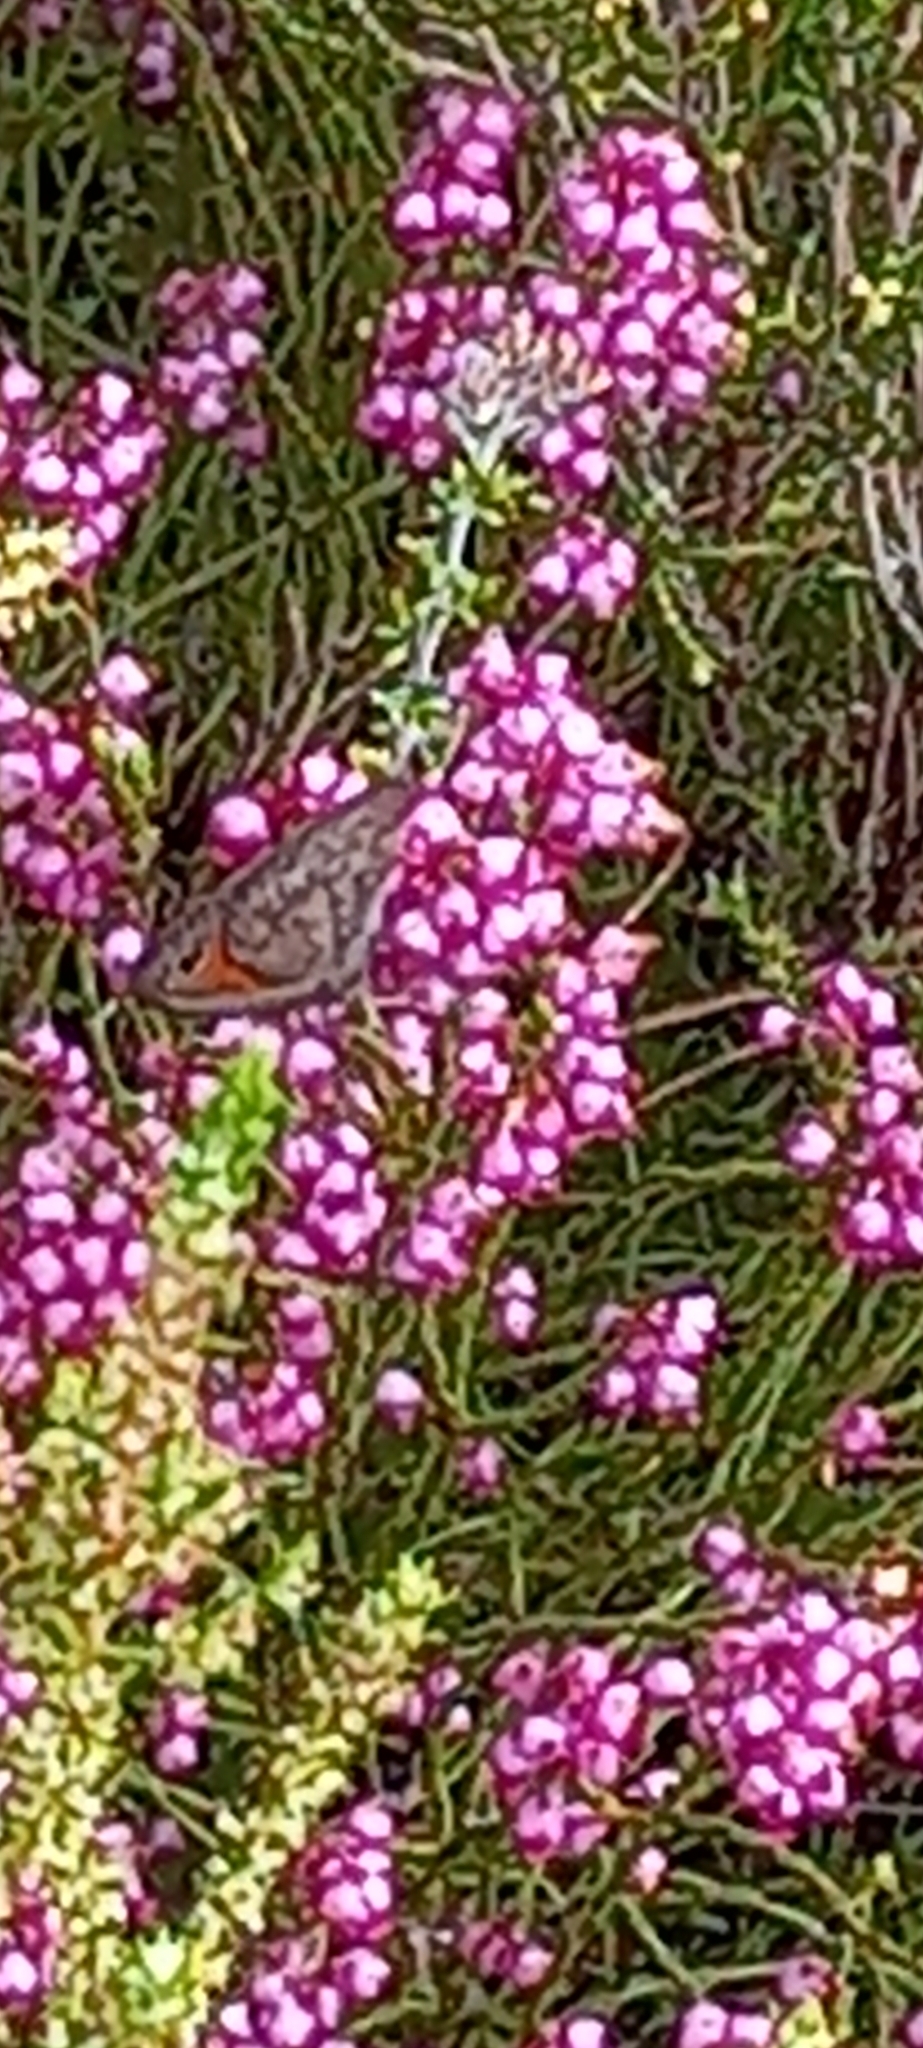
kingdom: Animalia
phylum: Arthropoda
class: Insecta
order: Lepidoptera
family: Nymphalidae
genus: Pseudonympha
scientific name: Pseudonympha detecta
